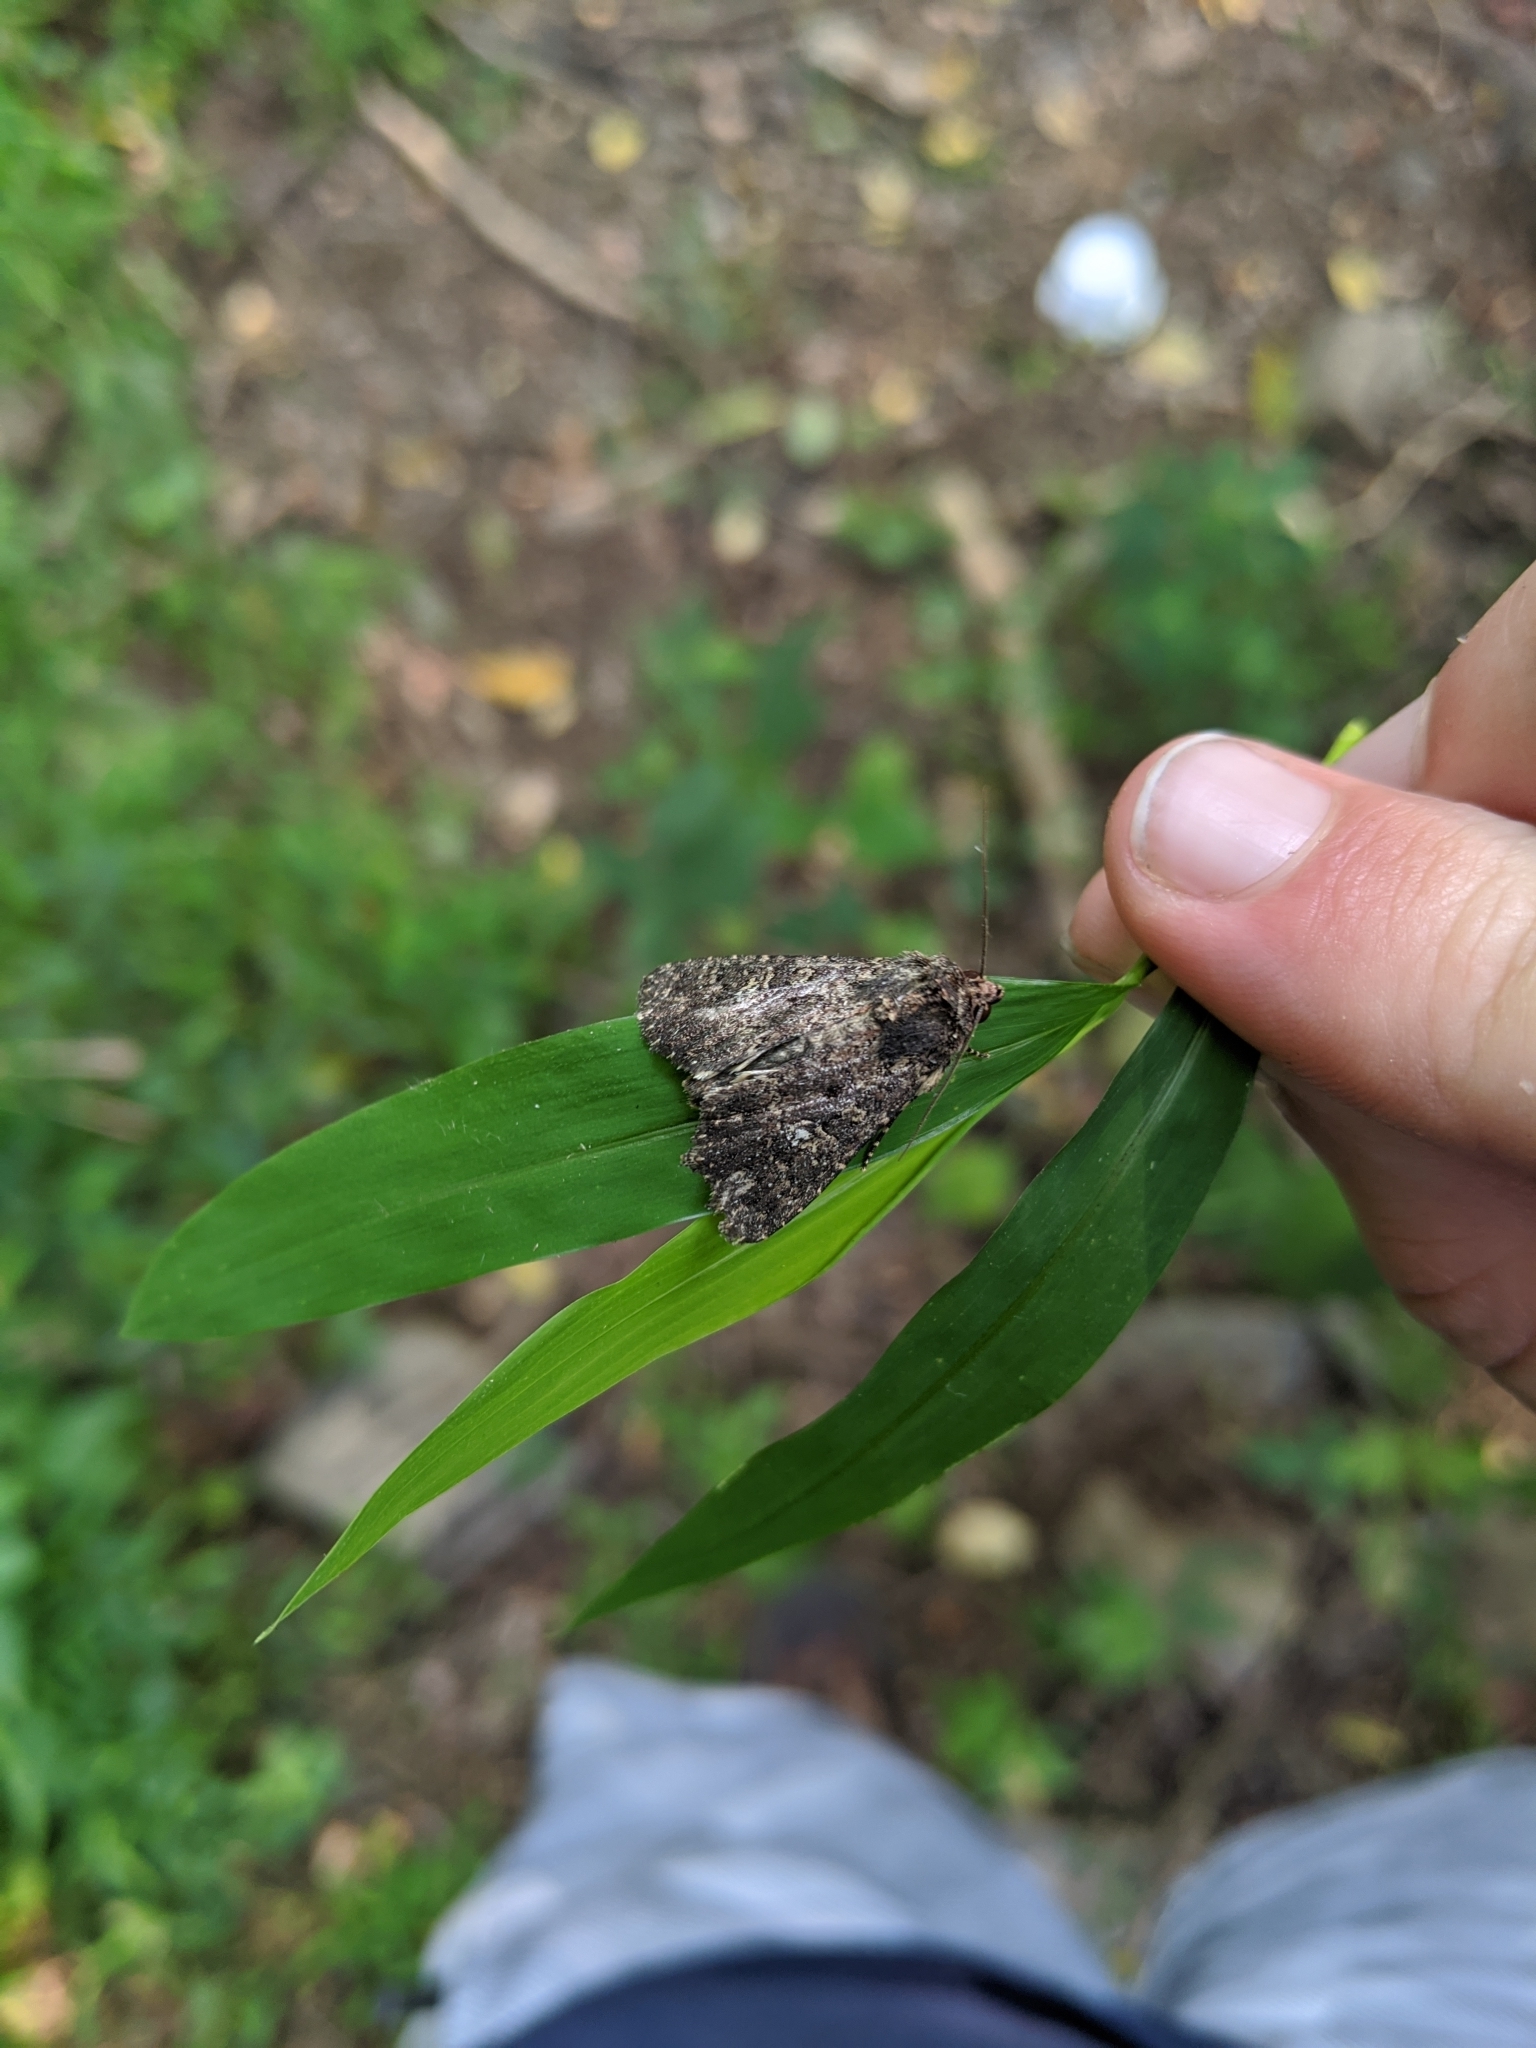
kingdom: Animalia
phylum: Arthropoda
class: Insecta
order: Lepidoptera
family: Noctuidae
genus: Condica
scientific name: Condica vecors
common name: Dusky groundling
